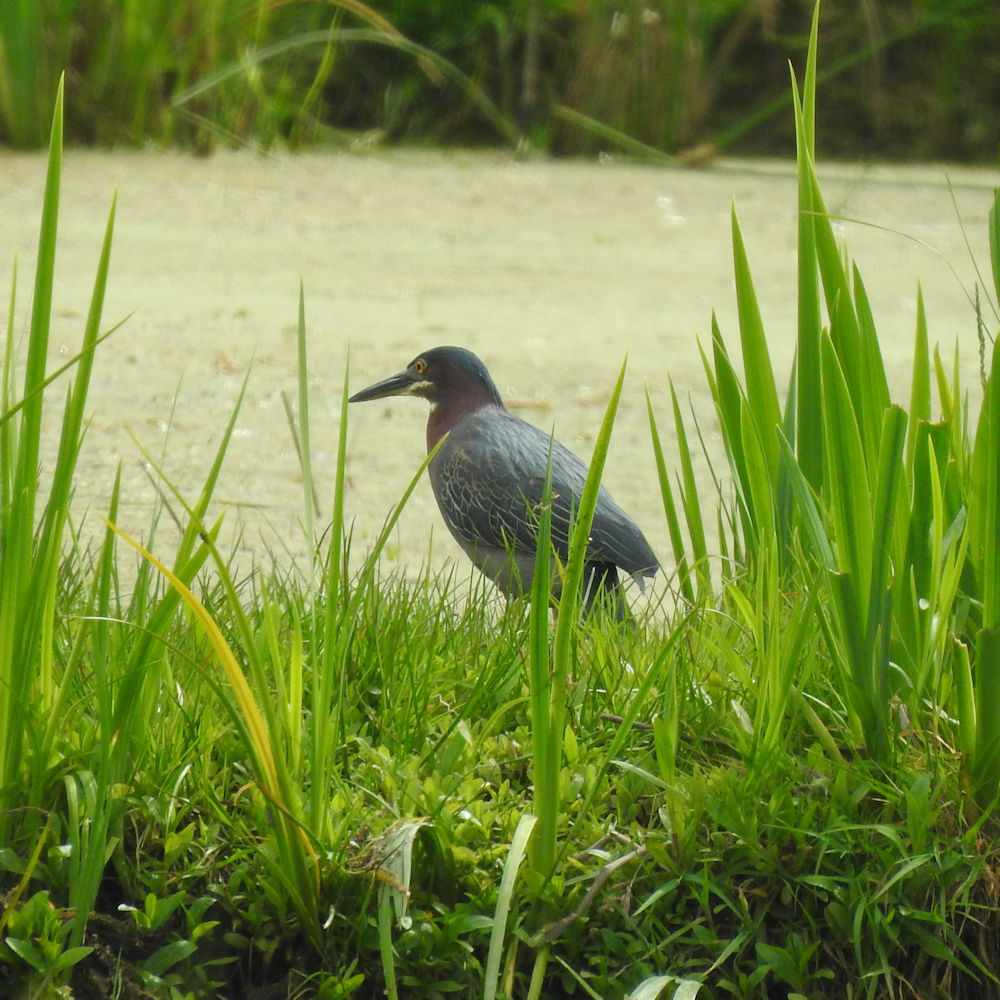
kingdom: Animalia
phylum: Chordata
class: Aves
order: Pelecaniformes
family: Ardeidae
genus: Butorides
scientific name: Butorides virescens
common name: Green heron
